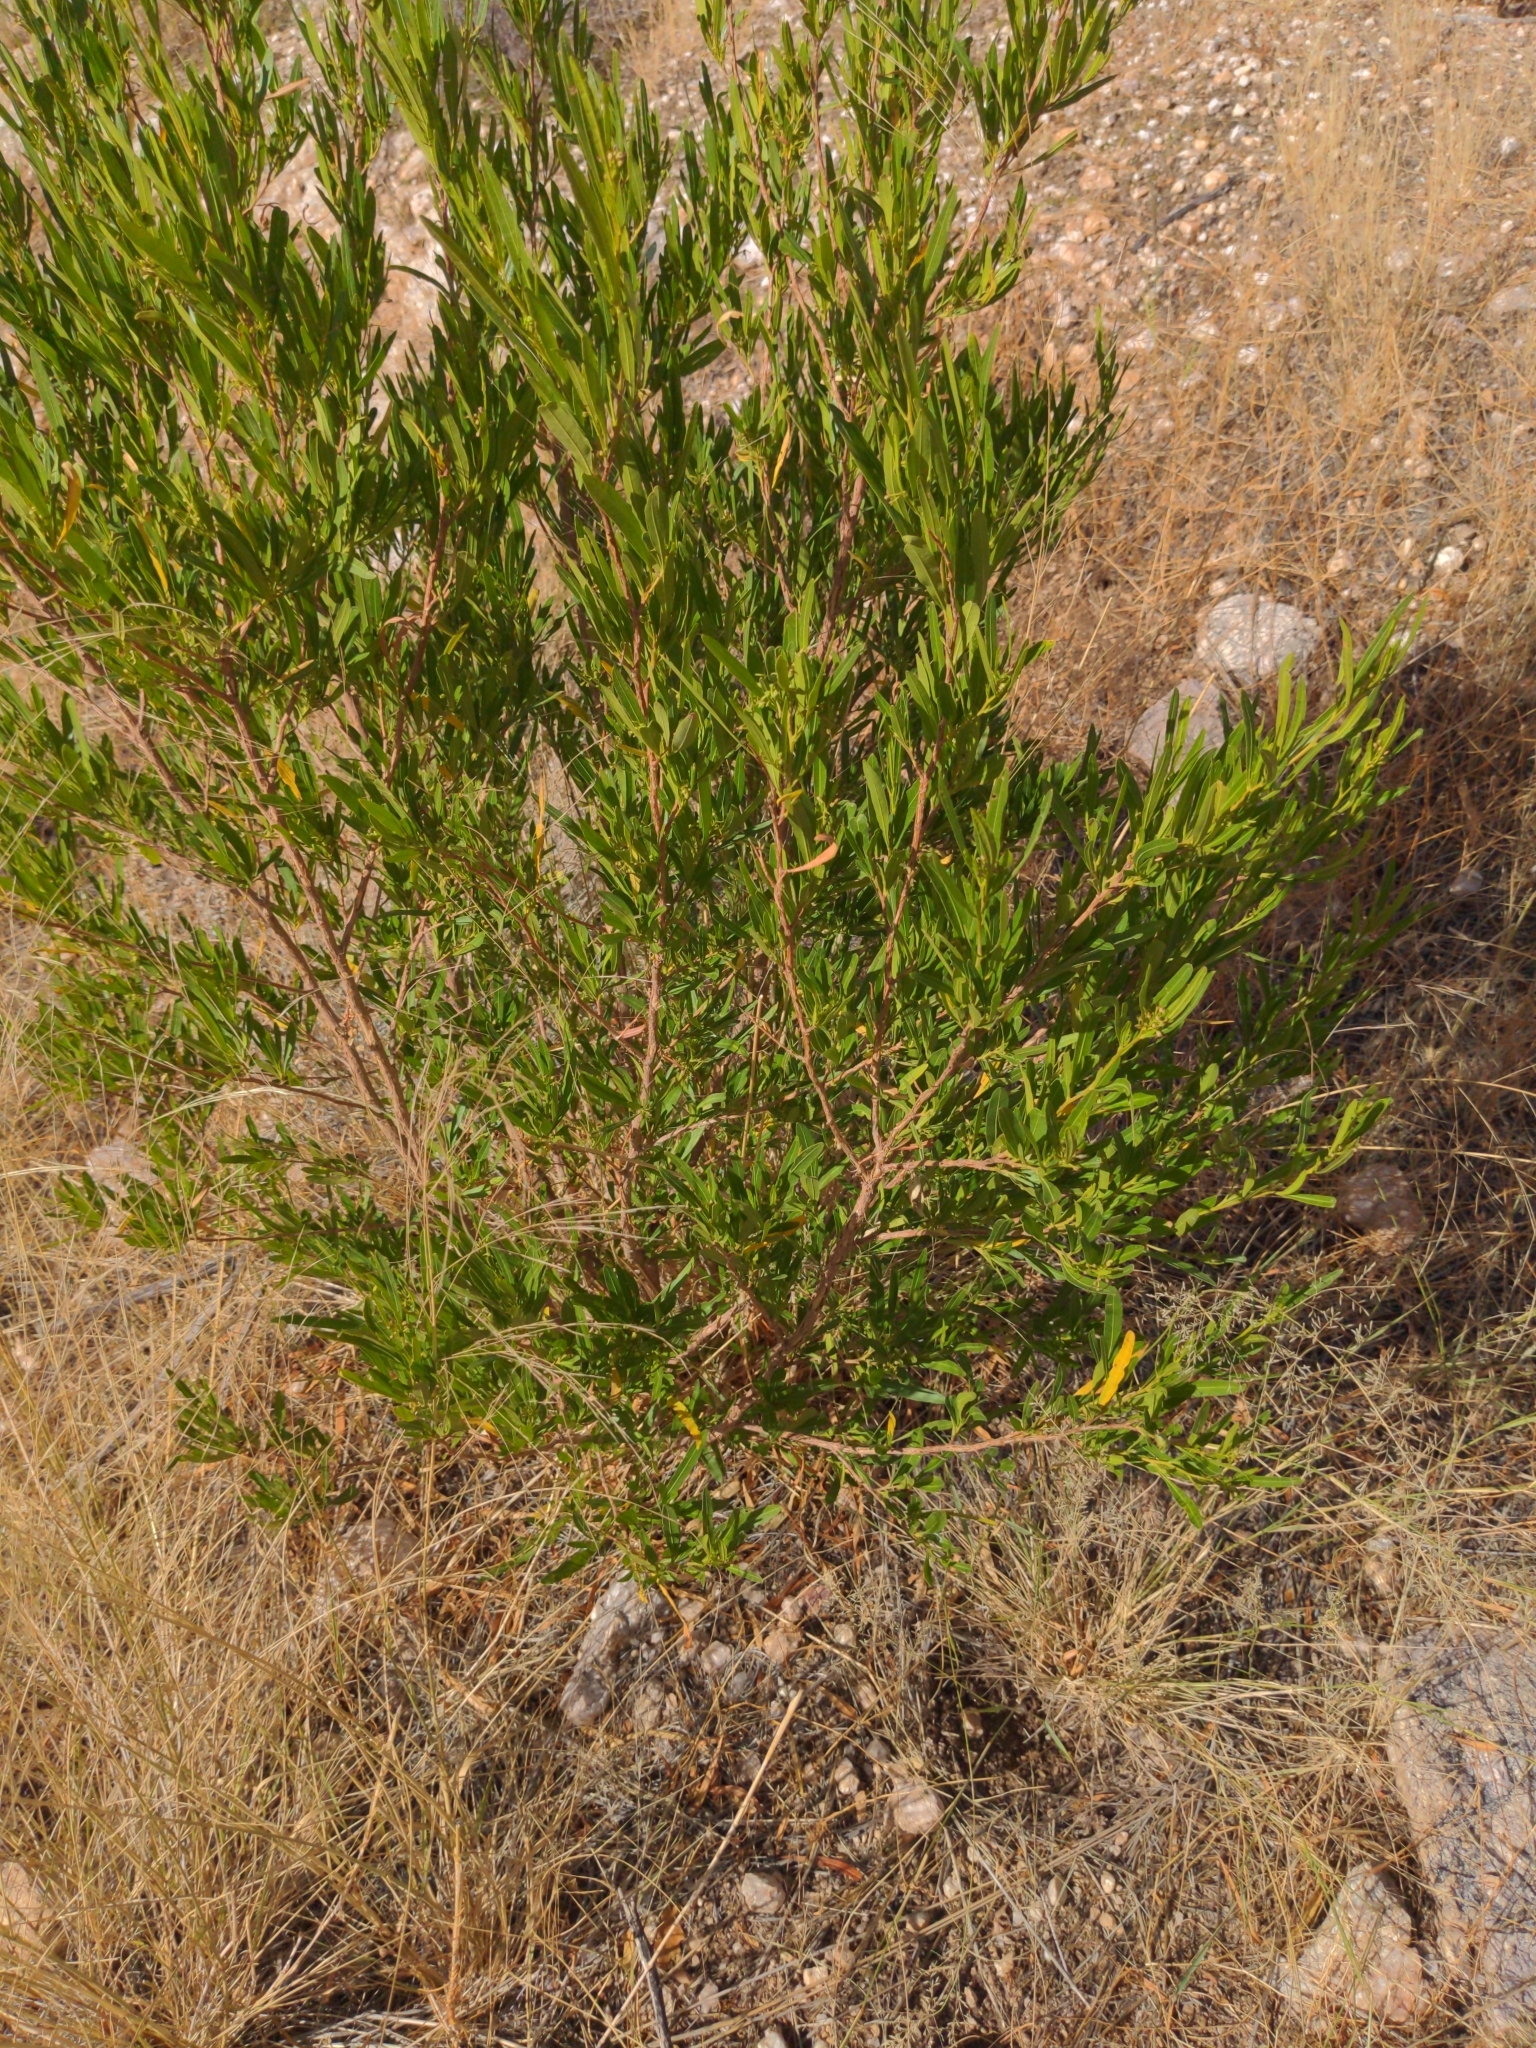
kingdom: Plantae
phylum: Tracheophyta
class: Magnoliopsida
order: Sapindales
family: Sapindaceae
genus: Dodonaea
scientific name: Dodonaea viscosa
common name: Hopbush
